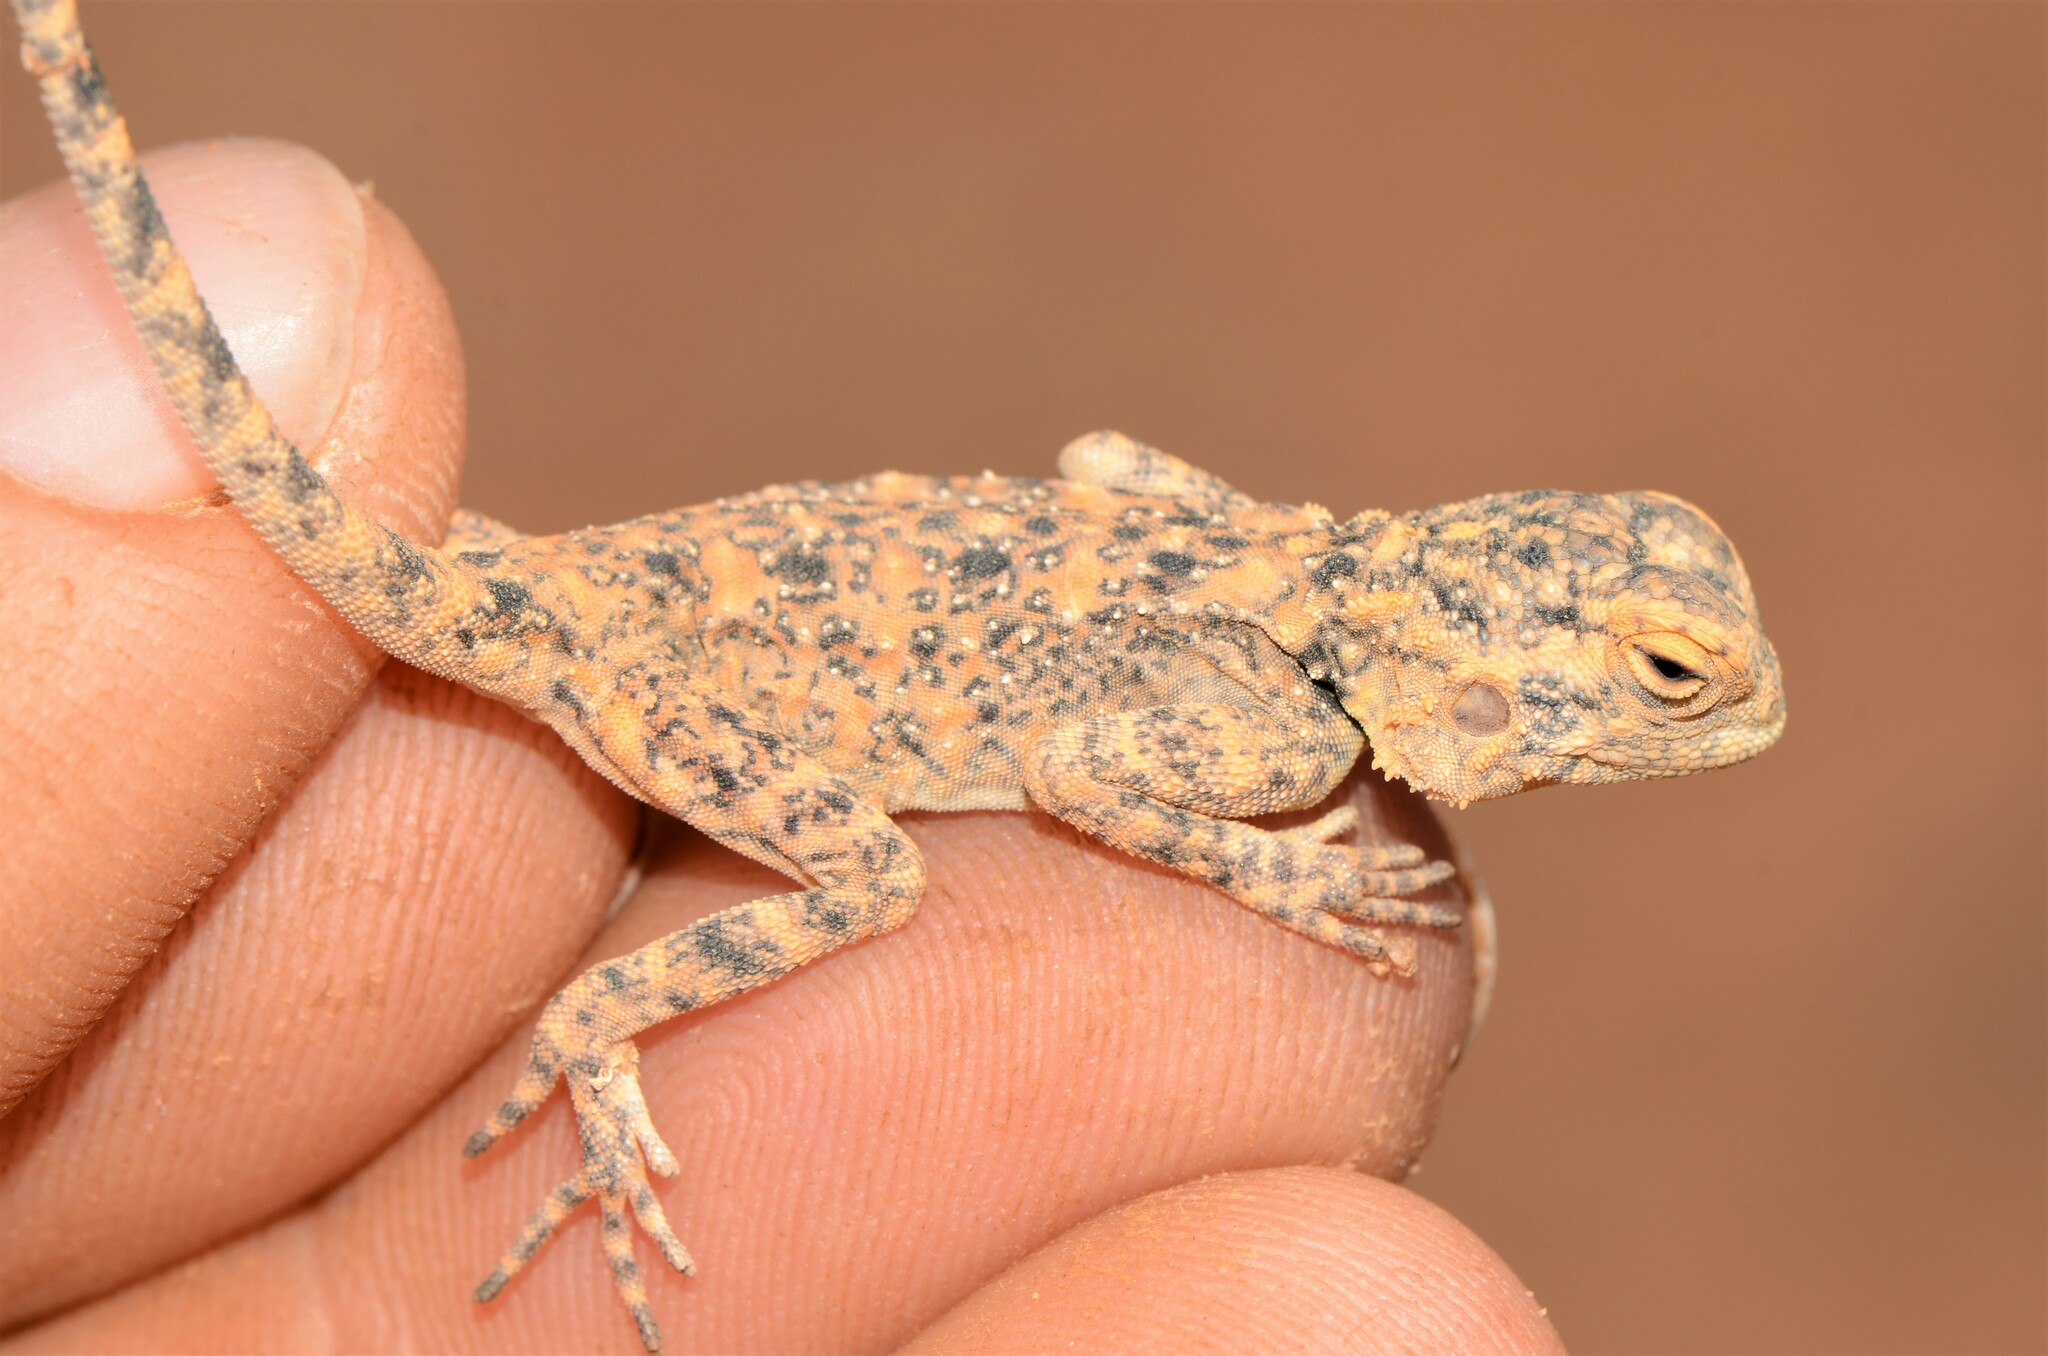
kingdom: Animalia
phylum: Chordata
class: Squamata
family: Agamidae
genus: Agama
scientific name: Agama atra
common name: Southern african rock agama
